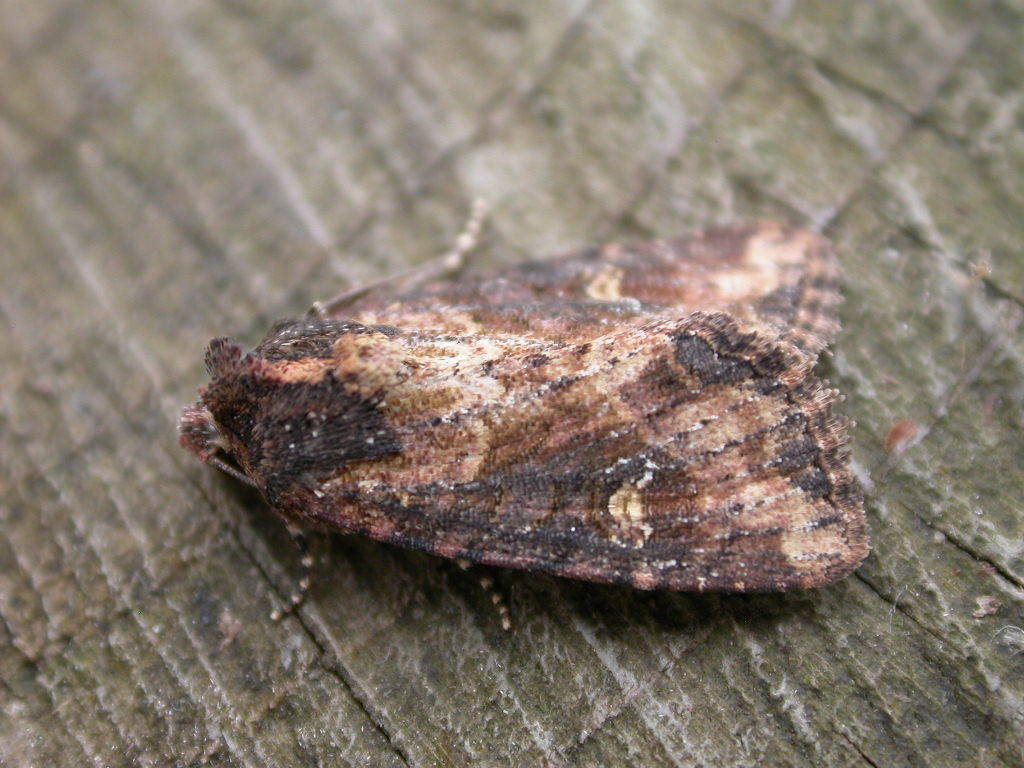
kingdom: Animalia
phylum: Arthropoda
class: Insecta
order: Lepidoptera
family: Noctuidae
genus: Mesapamea
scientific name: Mesapamea
